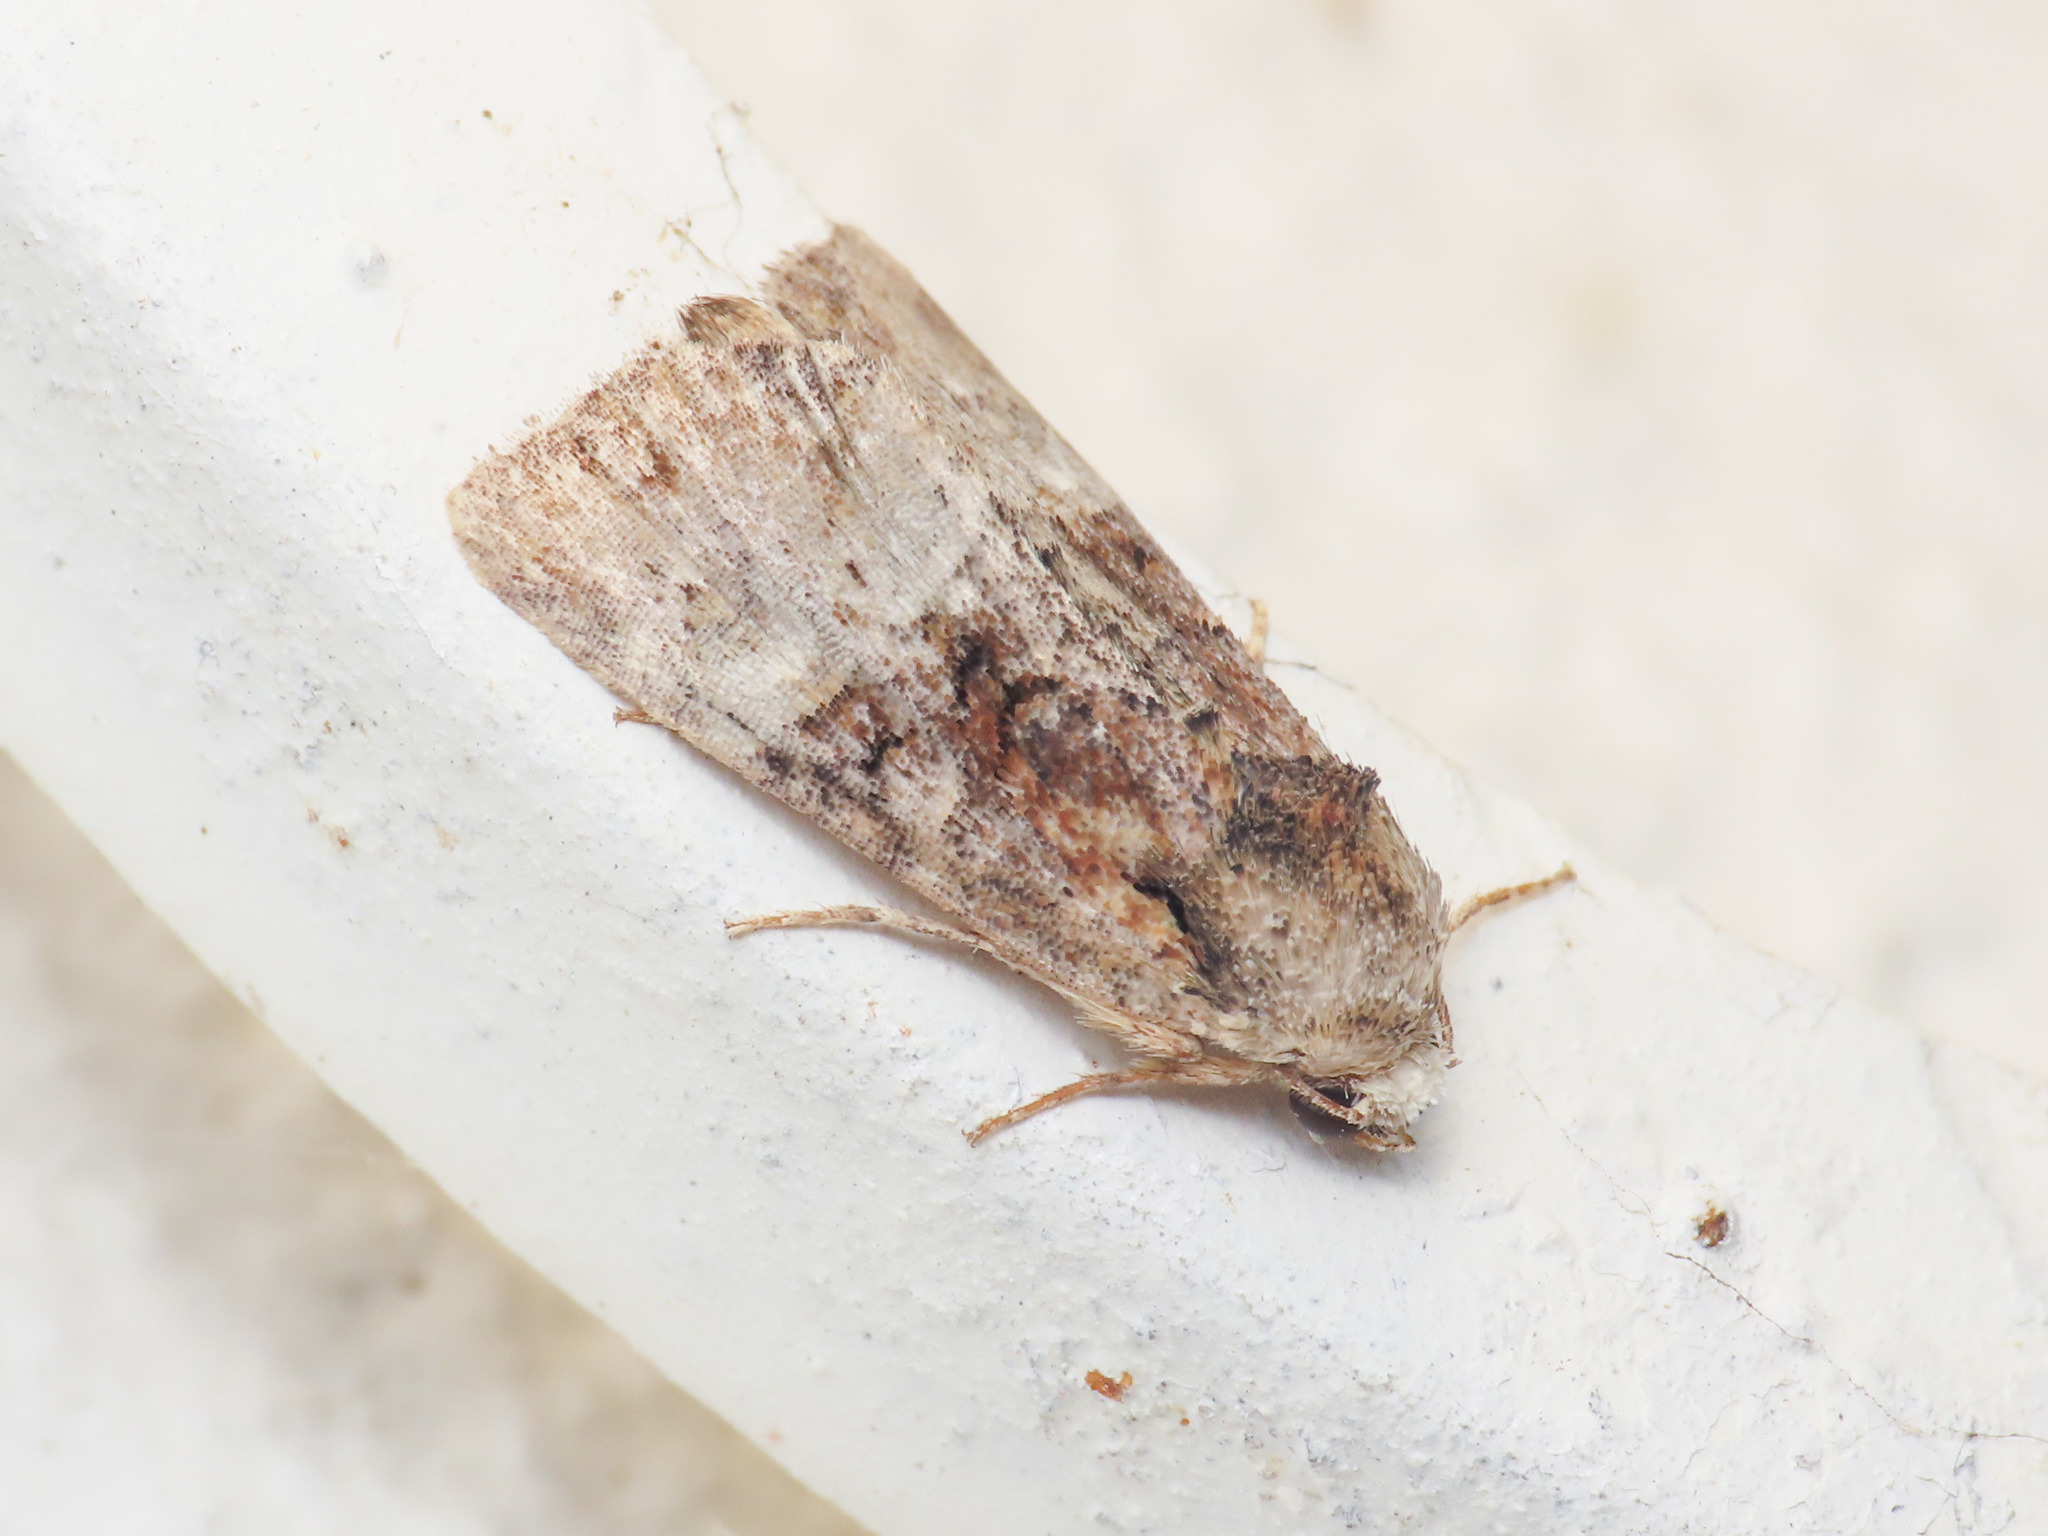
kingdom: Animalia
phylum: Arthropoda
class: Insecta
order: Lepidoptera
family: Noctuidae
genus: Mesoligia
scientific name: Mesoligia furuncula
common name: Cloaked minor
